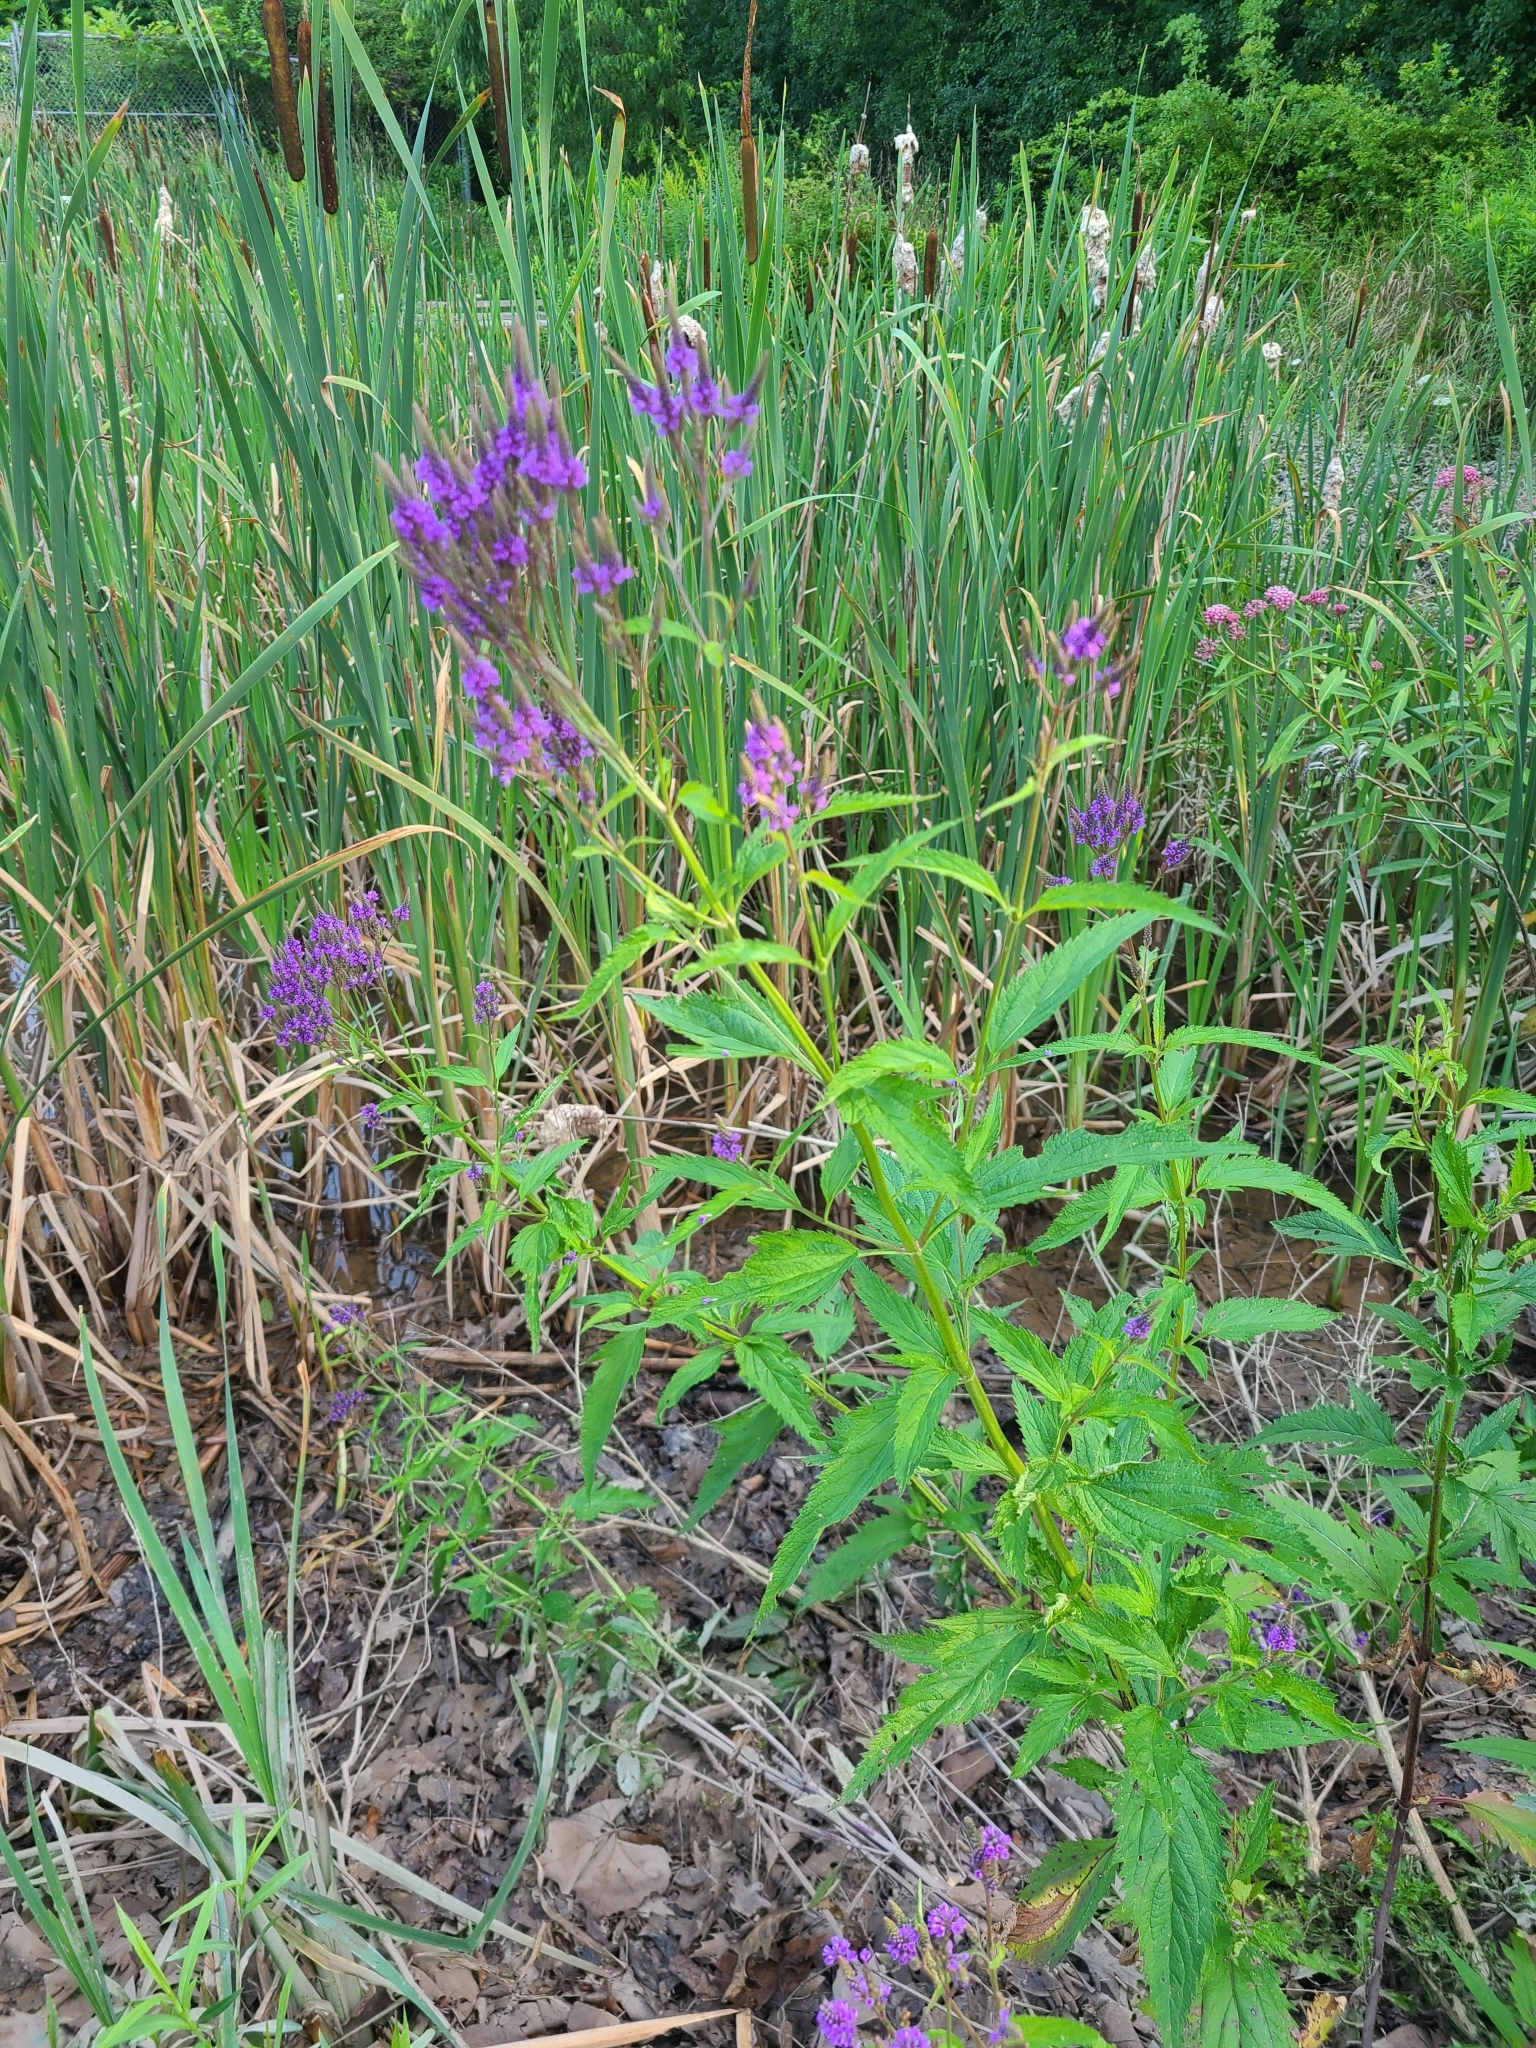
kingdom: Plantae
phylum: Tracheophyta
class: Magnoliopsida
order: Lamiales
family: Verbenaceae
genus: Verbena
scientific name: Verbena hastata
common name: American blue vervain
